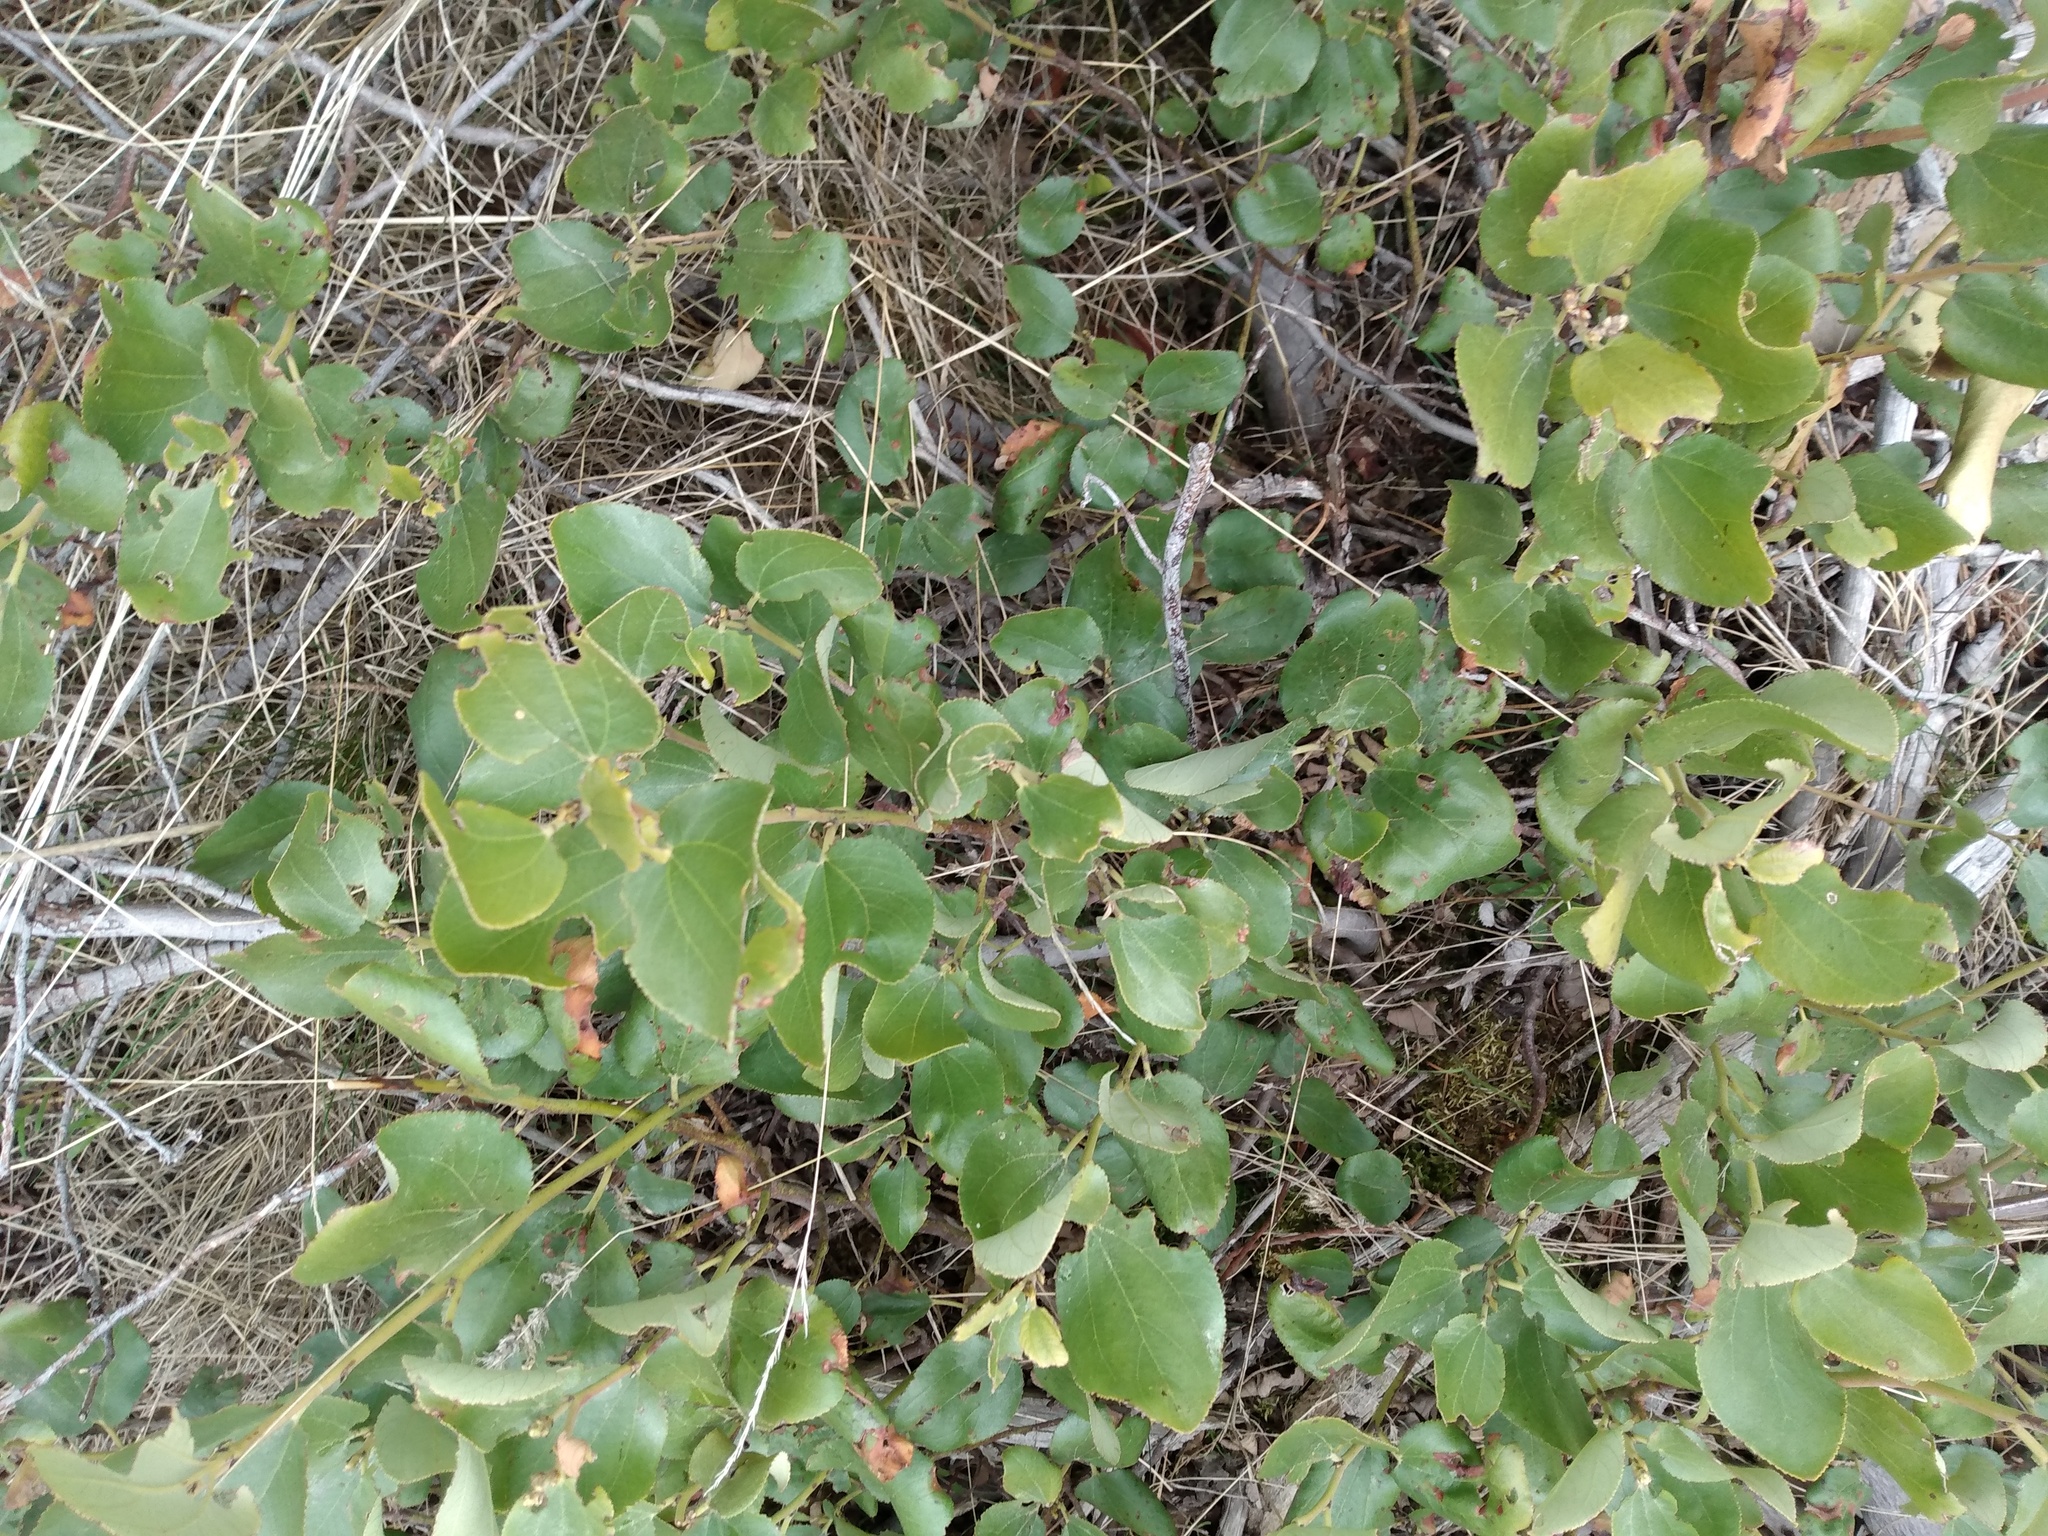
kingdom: Plantae
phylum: Tracheophyta
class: Magnoliopsida
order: Rosales
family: Rhamnaceae
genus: Ceanothus
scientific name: Ceanothus velutinus
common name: Snowbrush
